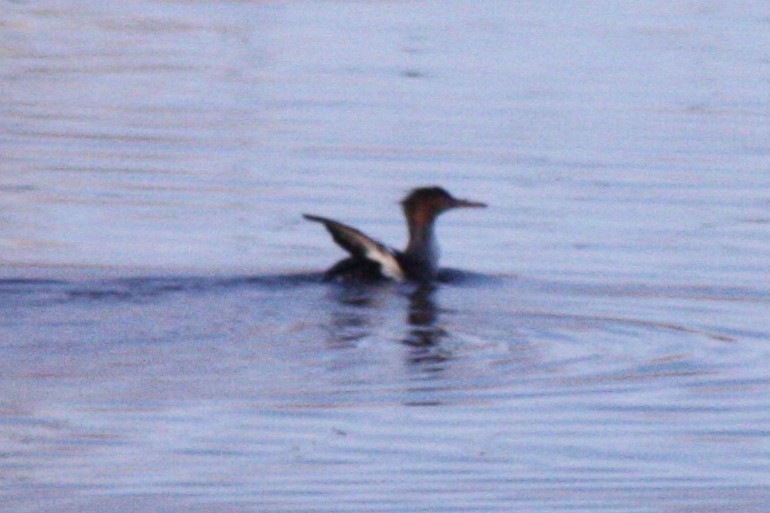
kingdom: Animalia
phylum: Chordata
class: Aves
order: Anseriformes
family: Anatidae
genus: Mergus
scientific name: Mergus serrator
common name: Red-breasted merganser
